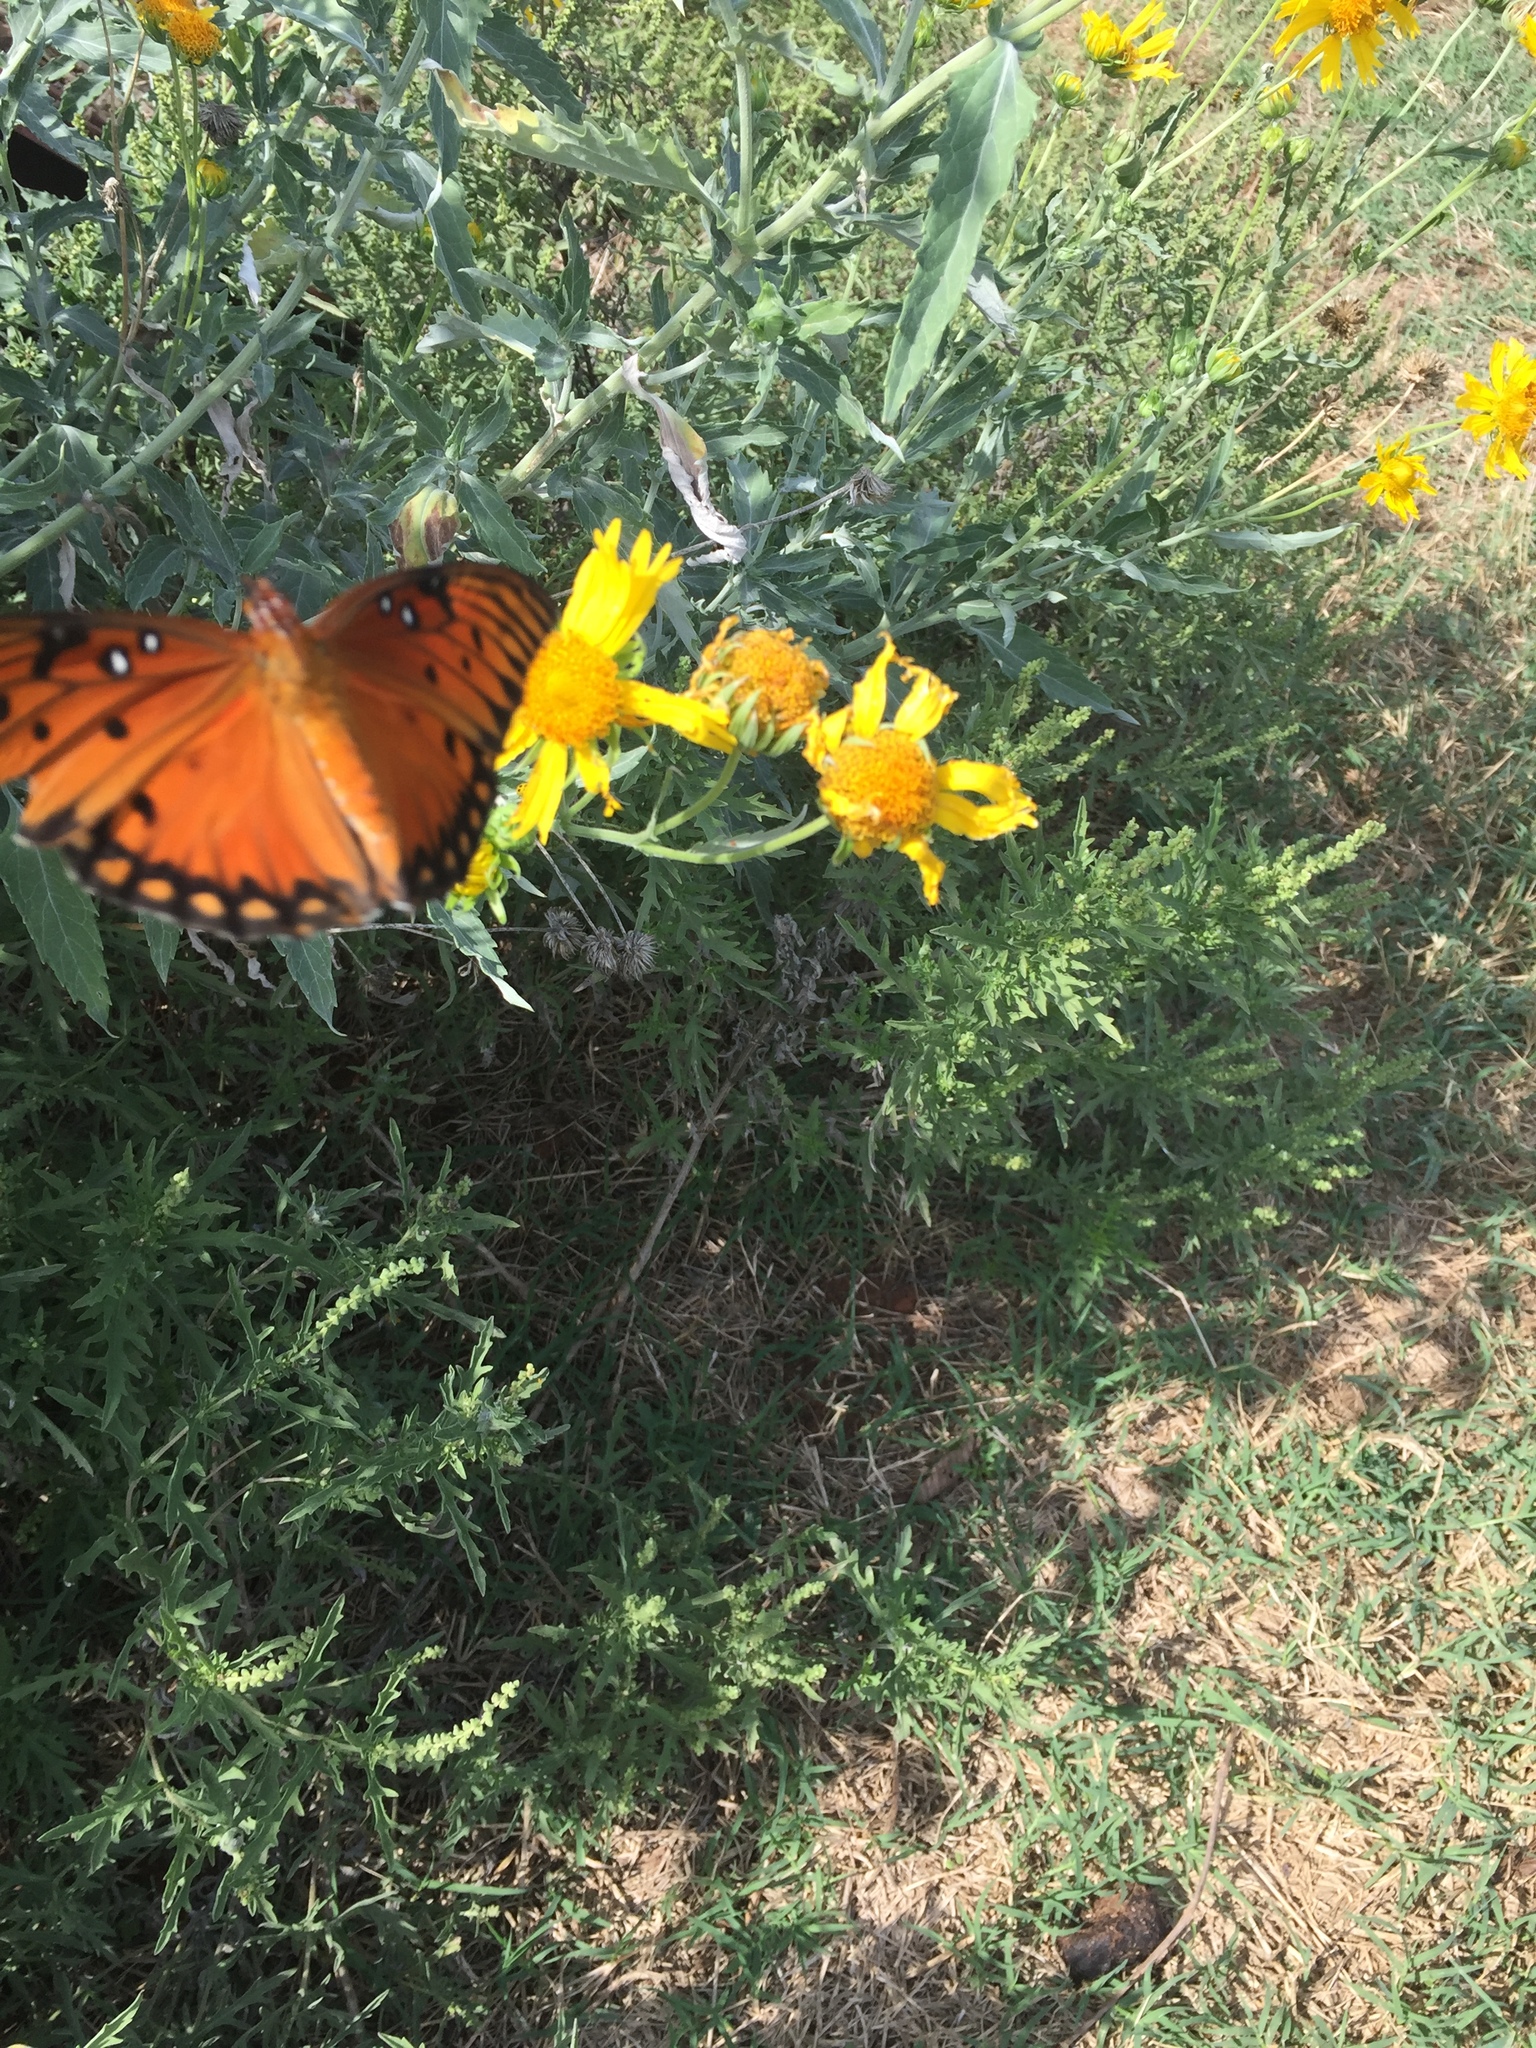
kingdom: Animalia
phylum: Arthropoda
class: Insecta
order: Lepidoptera
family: Nymphalidae
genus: Dione
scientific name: Dione vanillae
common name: Gulf fritillary
